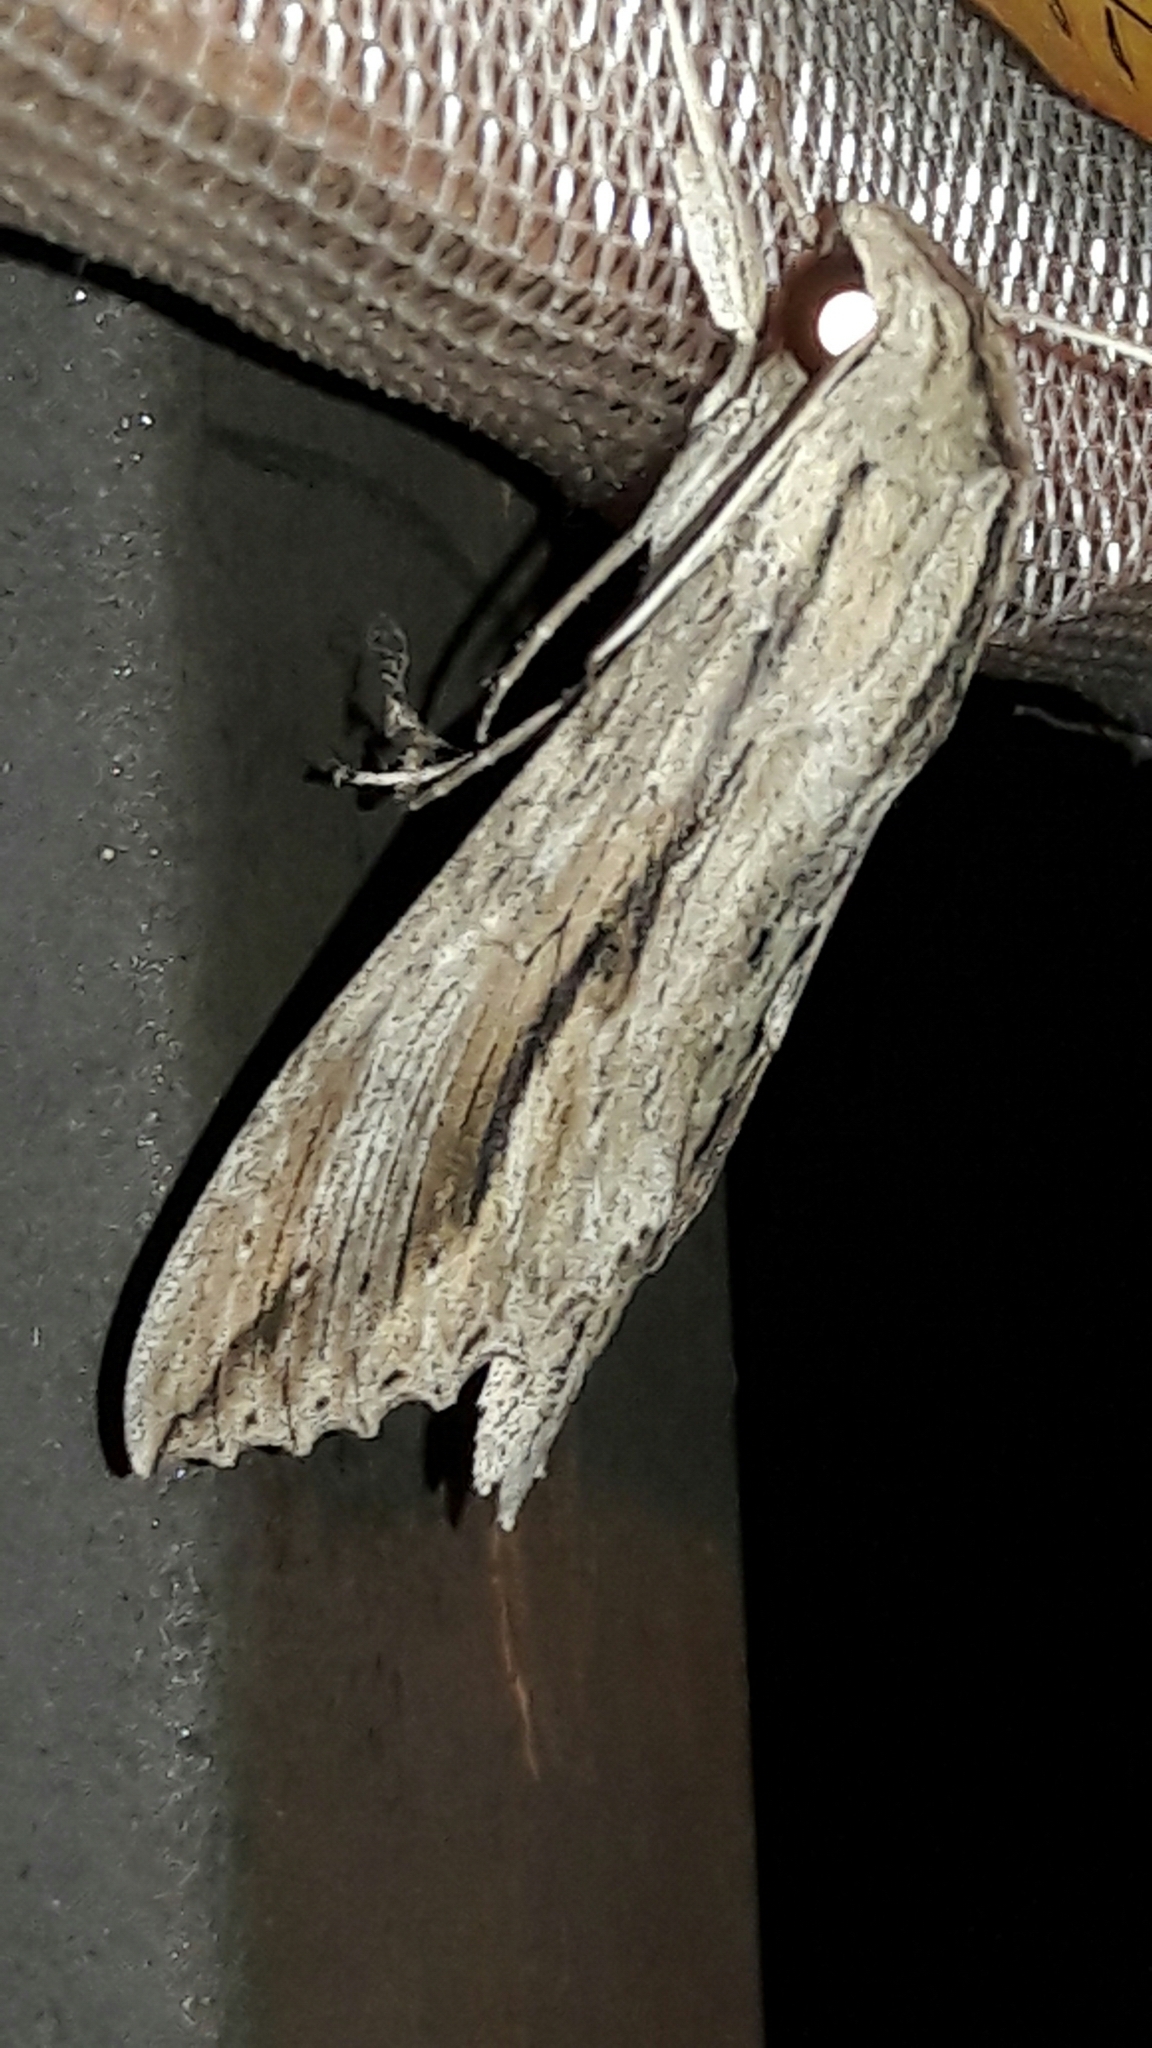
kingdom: Animalia
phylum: Arthropoda
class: Insecta
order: Lepidoptera
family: Sphingidae
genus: Erinnyis
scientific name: Erinnyis ello
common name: Ello sphinx
